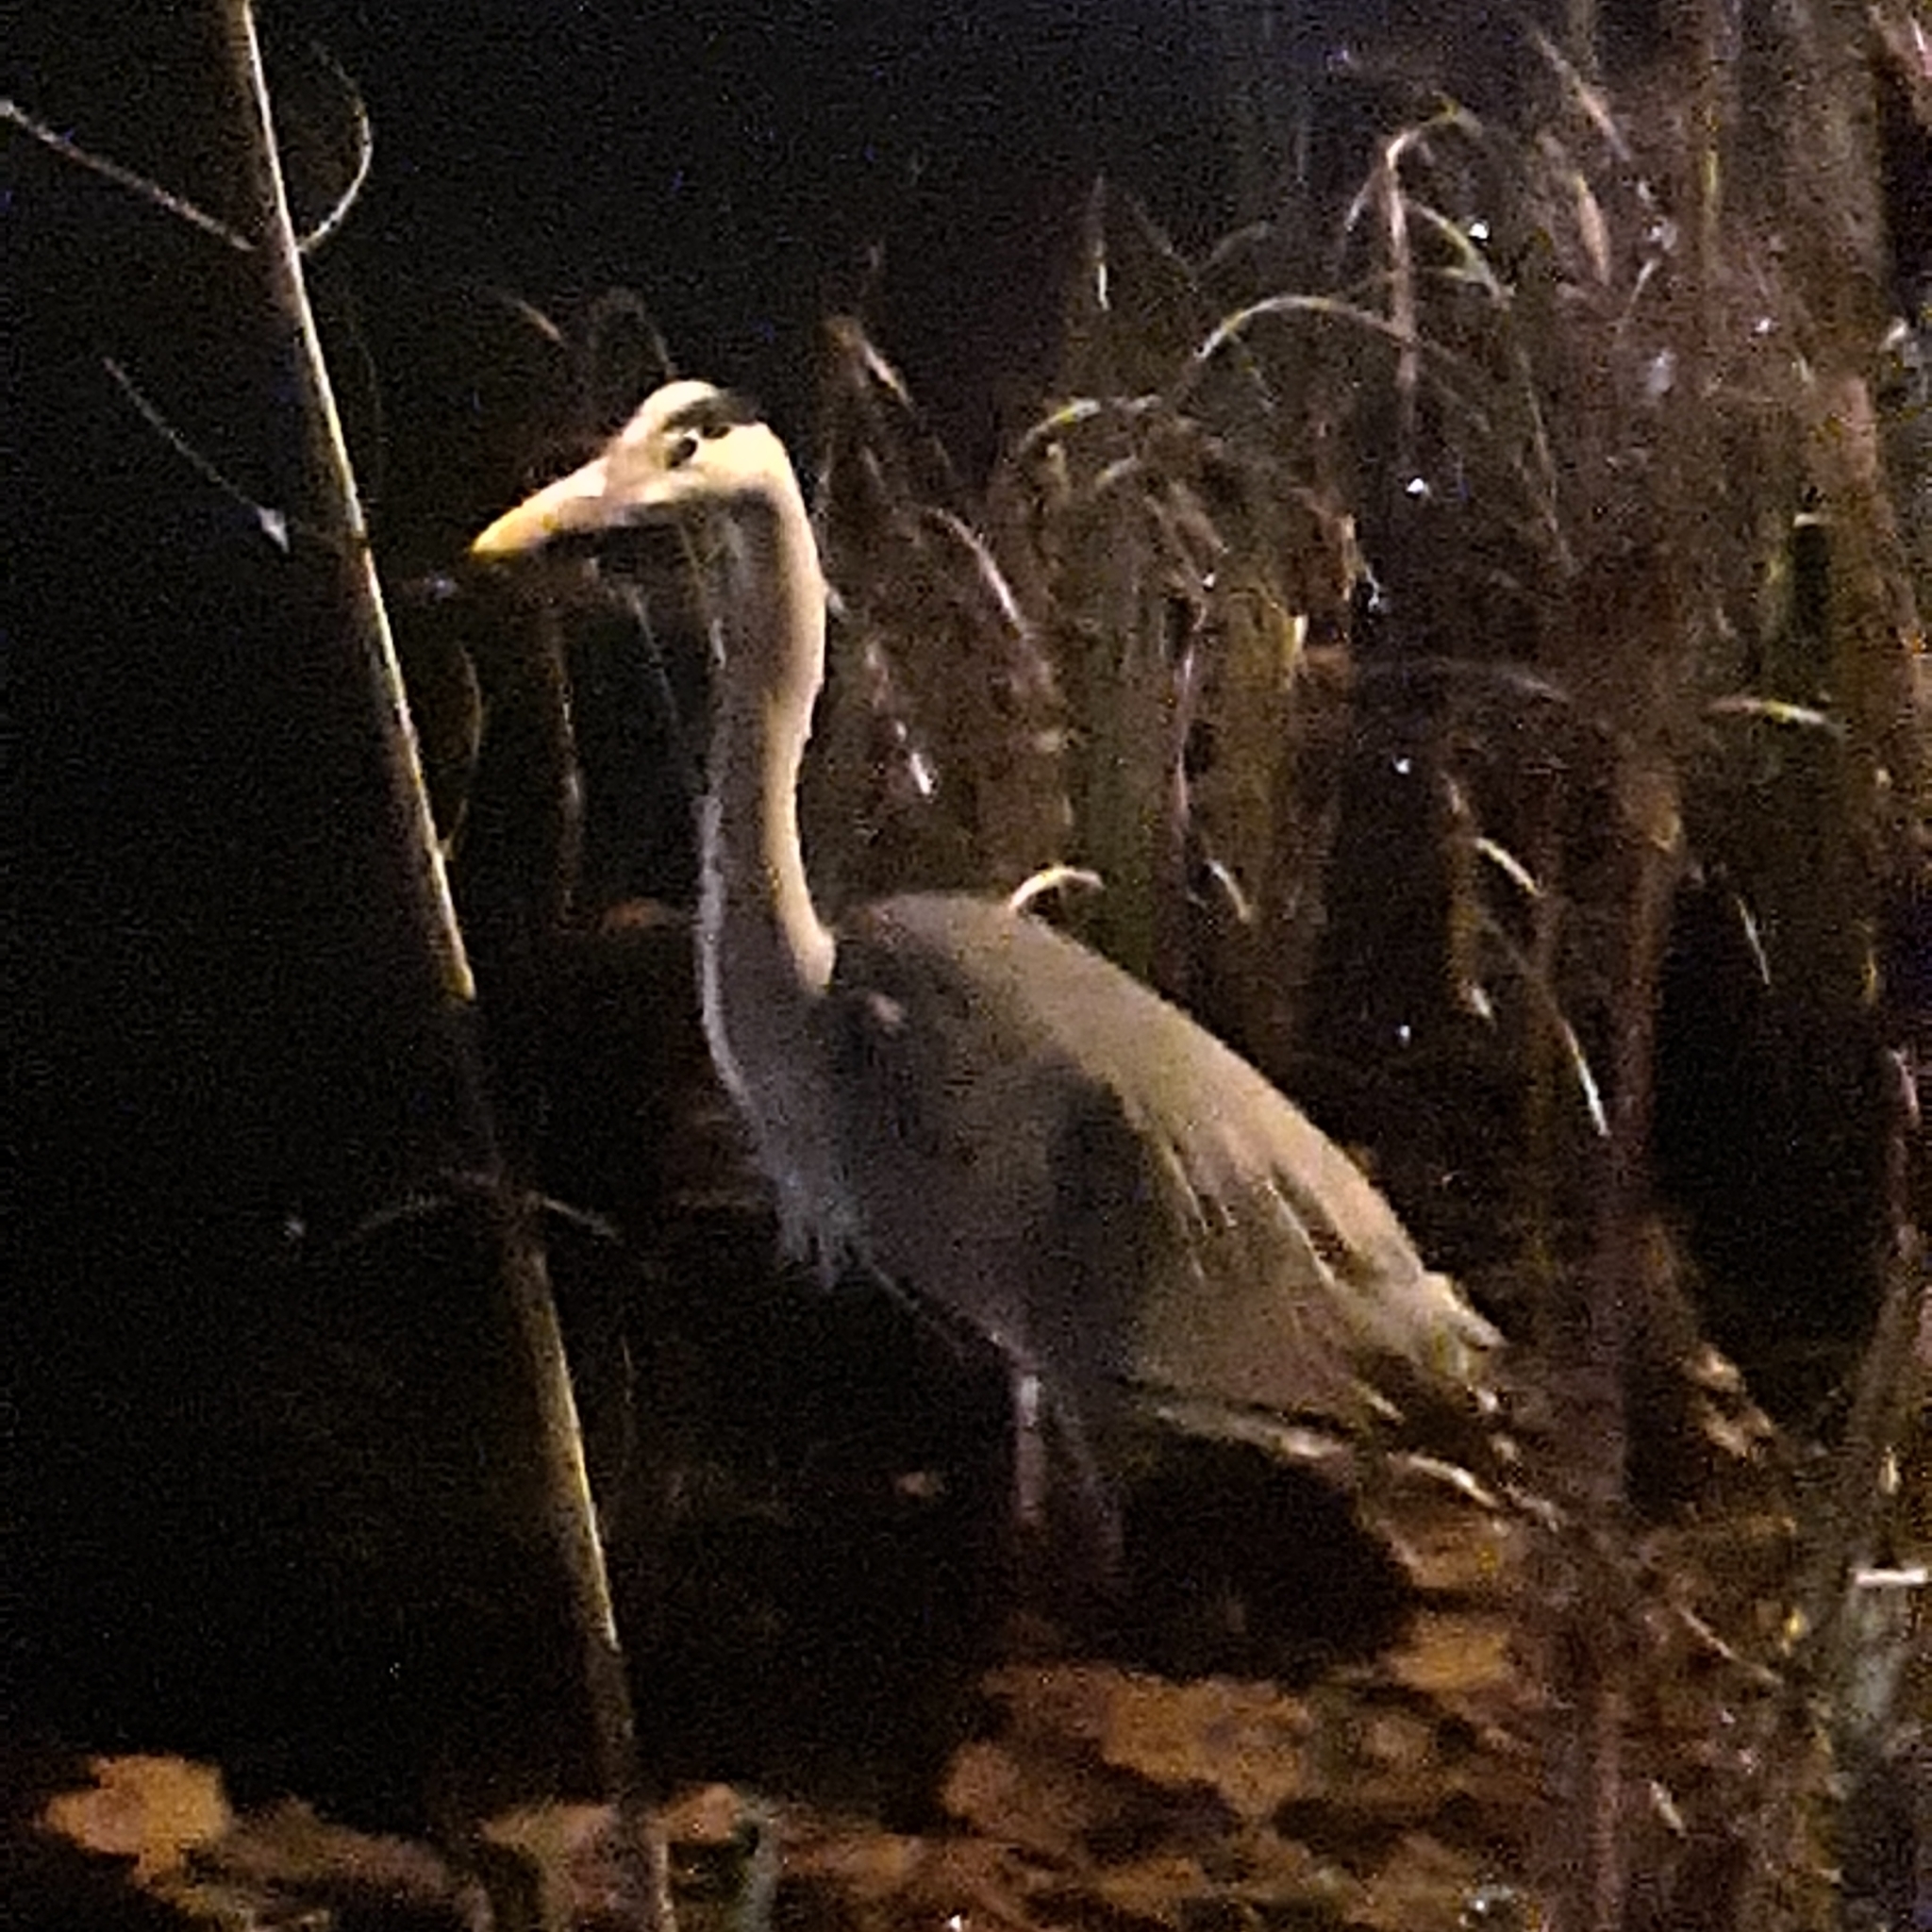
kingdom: Animalia
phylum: Chordata
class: Aves
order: Pelecaniformes
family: Ardeidae
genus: Ardea
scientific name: Ardea cinerea
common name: Grey heron
